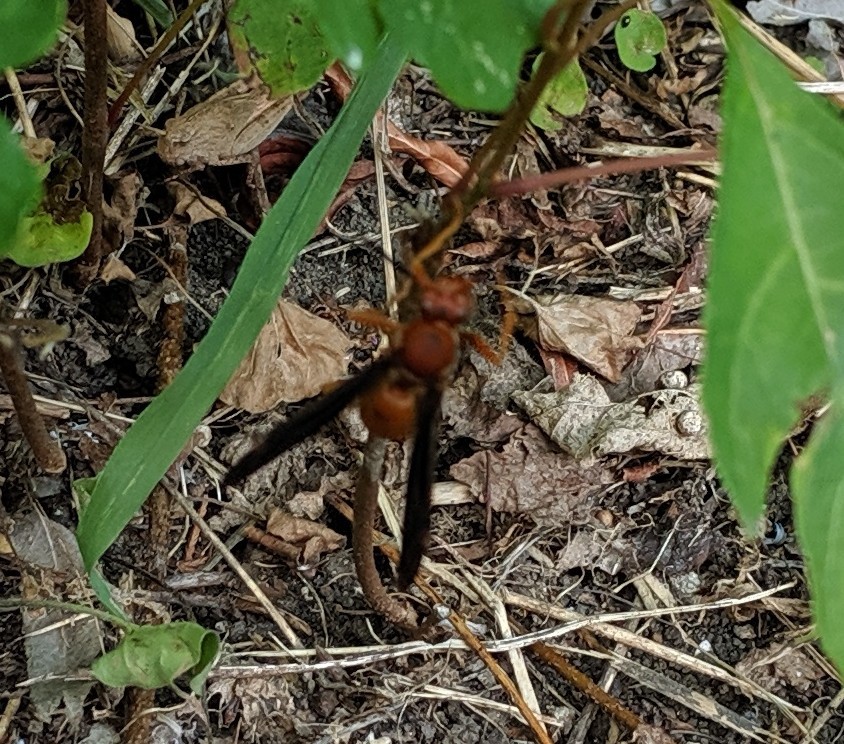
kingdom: Animalia
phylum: Arthropoda
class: Insecta
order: Hymenoptera
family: Vespidae
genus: Fuscopolistes
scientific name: Fuscopolistes
